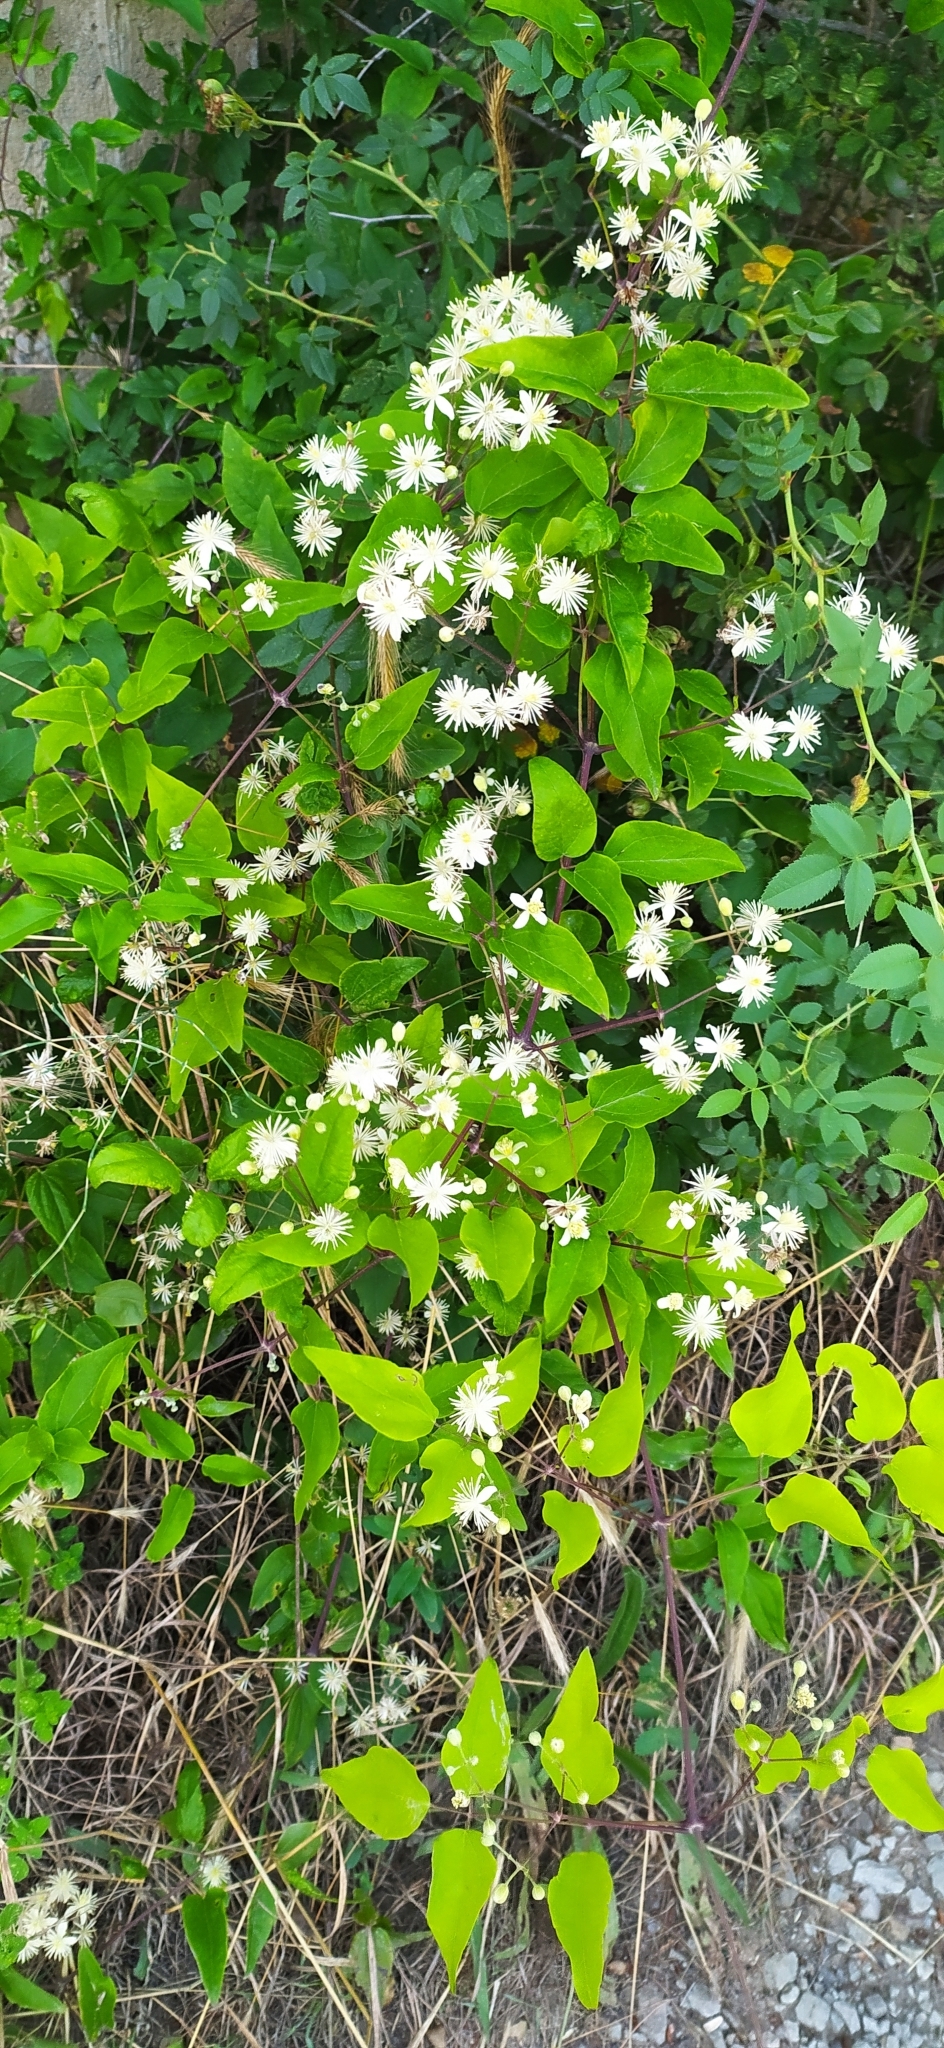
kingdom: Plantae
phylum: Tracheophyta
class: Magnoliopsida
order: Ranunculales
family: Ranunculaceae
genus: Clematis
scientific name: Clematis vitalba
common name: Evergreen clematis
